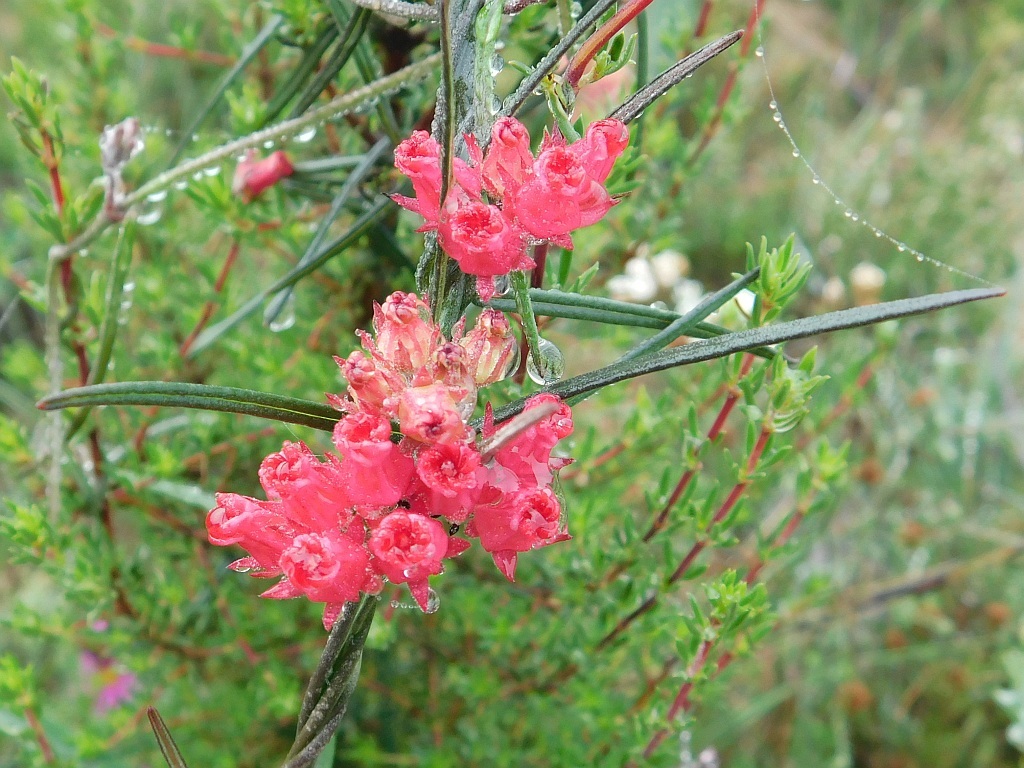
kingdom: Plantae
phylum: Tracheophyta
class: Magnoliopsida
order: Gentianales
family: Apocynaceae
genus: Microloma
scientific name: Microloma tenuifolium
